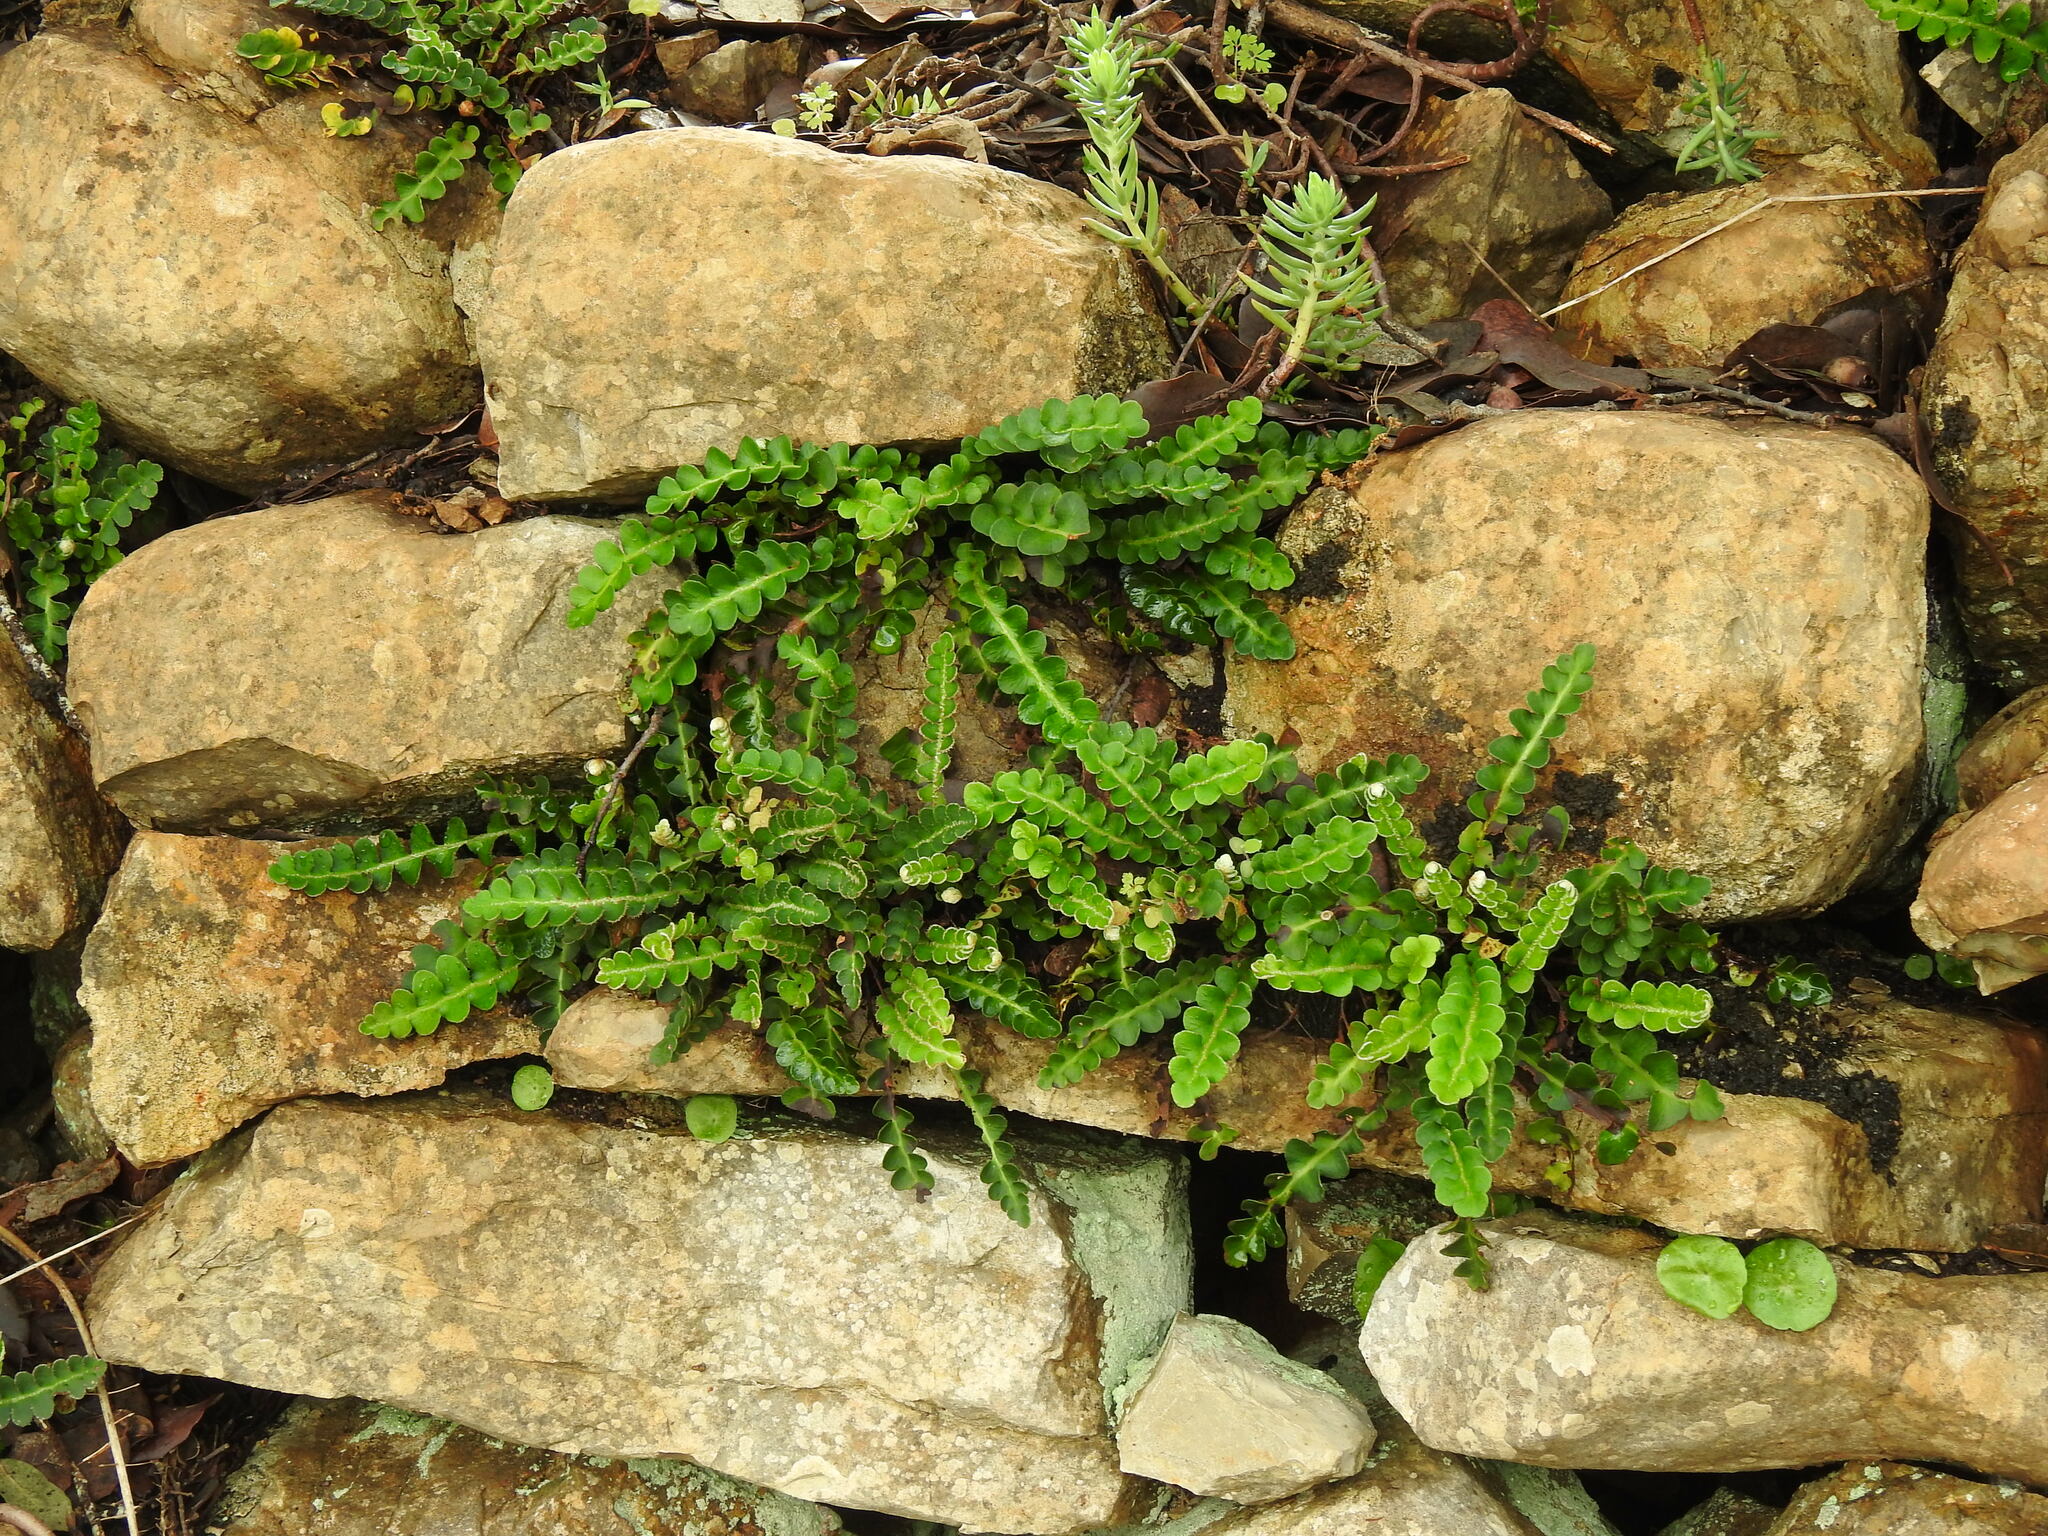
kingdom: Plantae
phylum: Tracheophyta
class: Polypodiopsida
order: Polypodiales
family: Aspleniaceae
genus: Asplenium
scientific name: Asplenium ceterach
